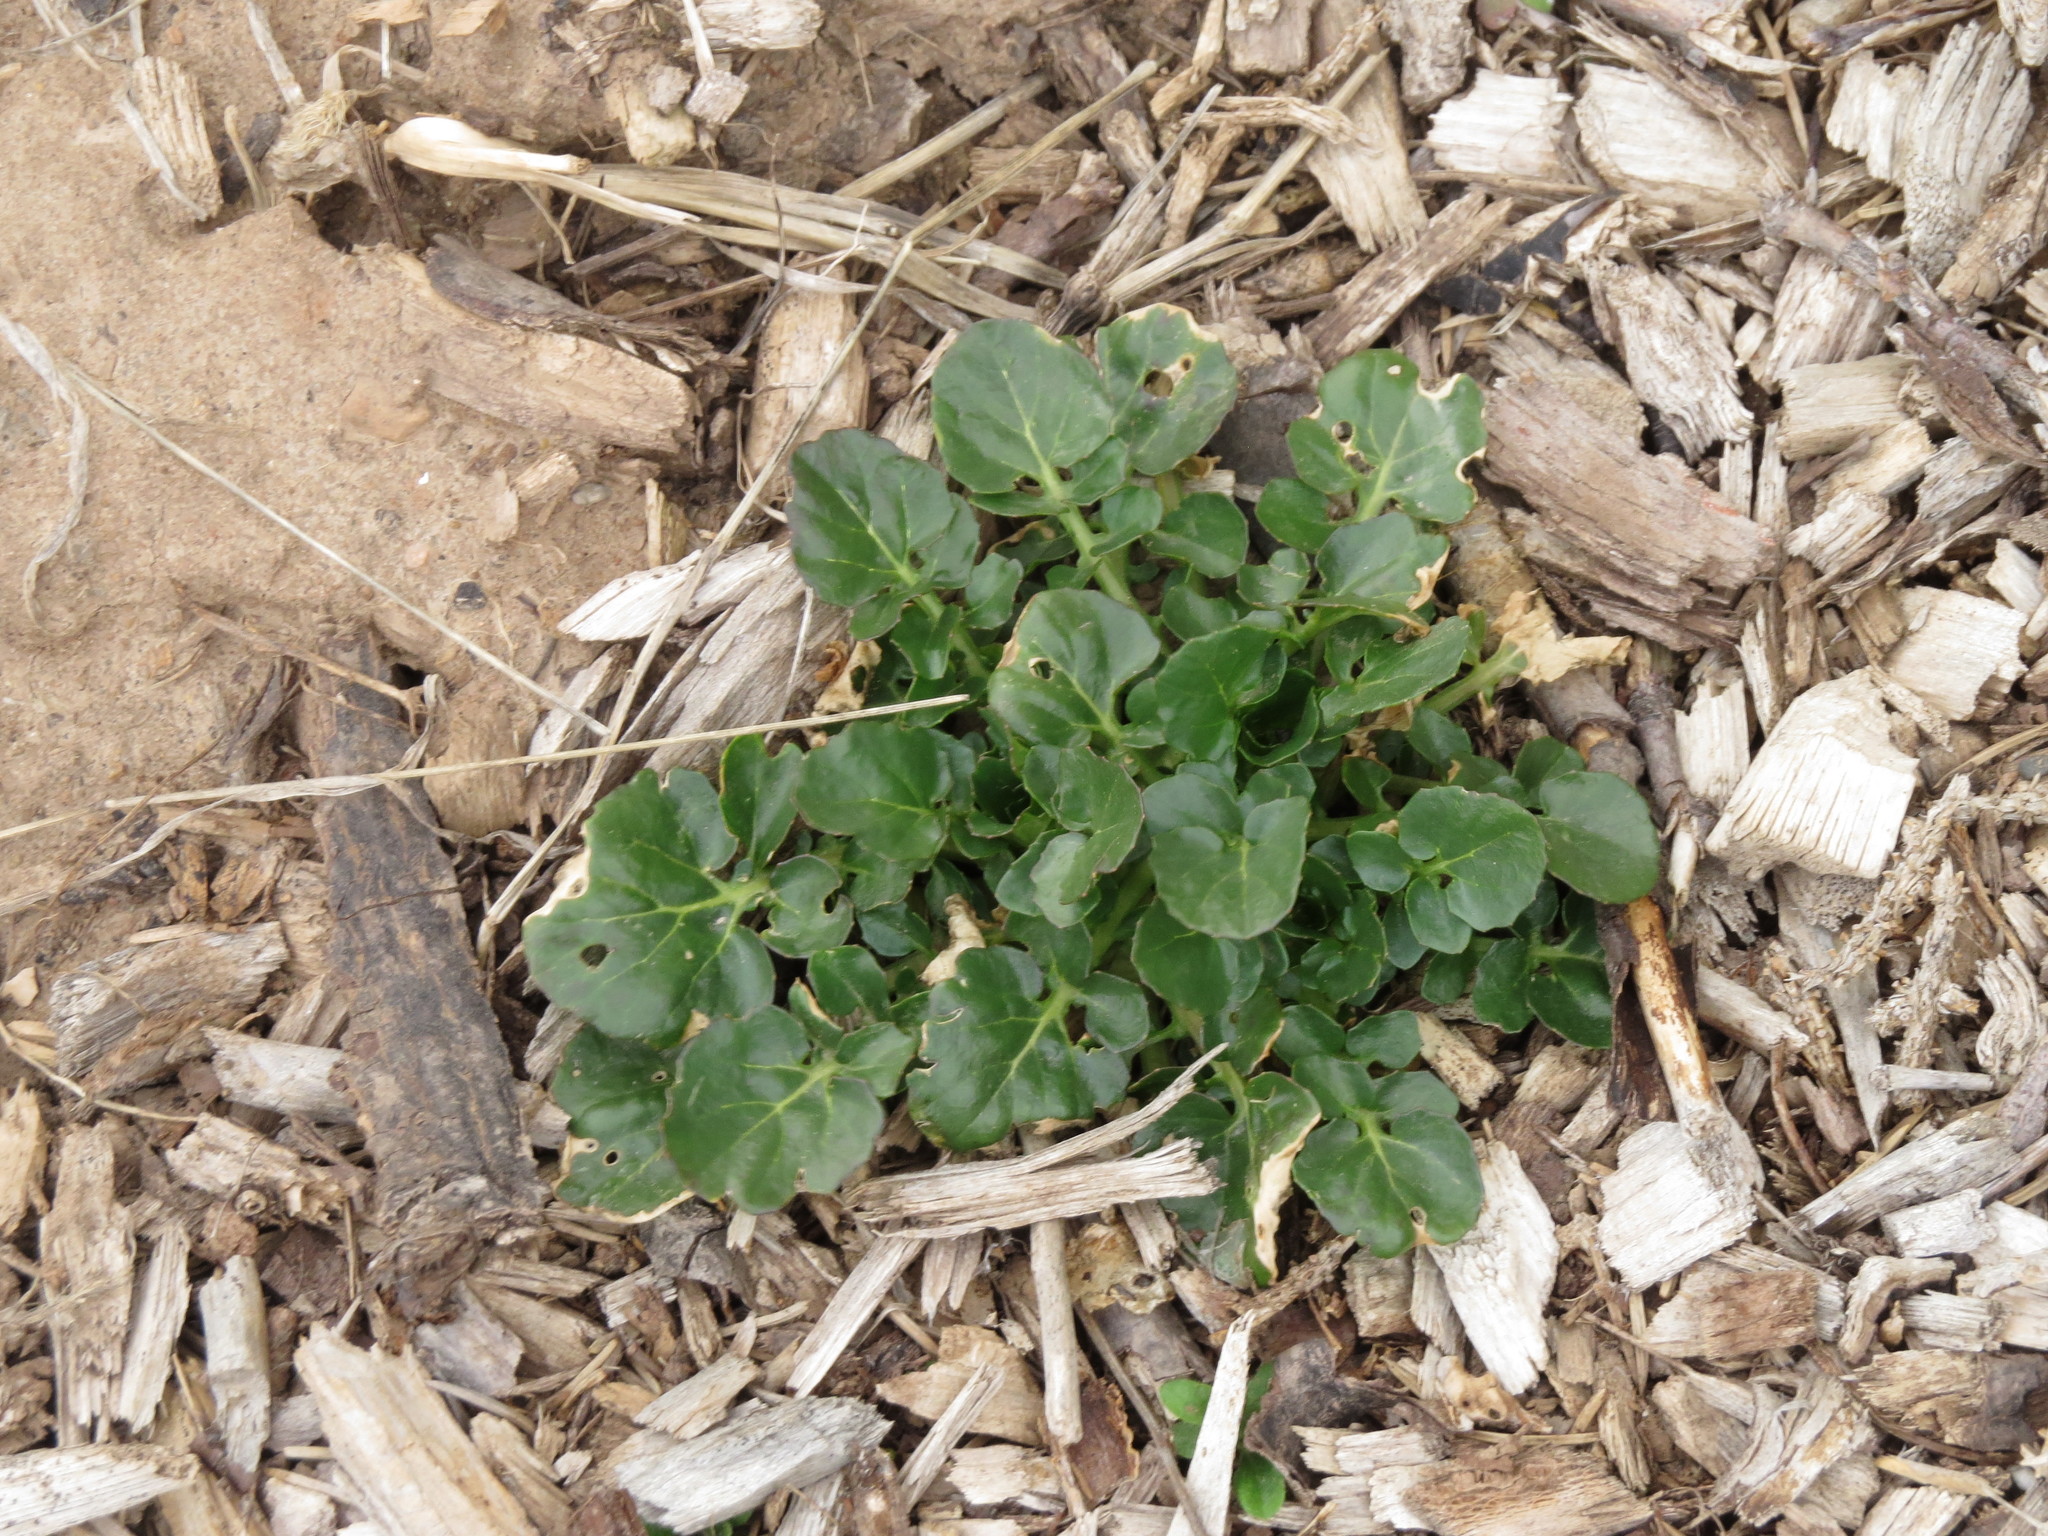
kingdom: Plantae
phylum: Tracheophyta
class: Magnoliopsida
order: Brassicales
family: Brassicaceae
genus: Barbarea
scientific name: Barbarea vulgaris
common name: Cressy-greens
